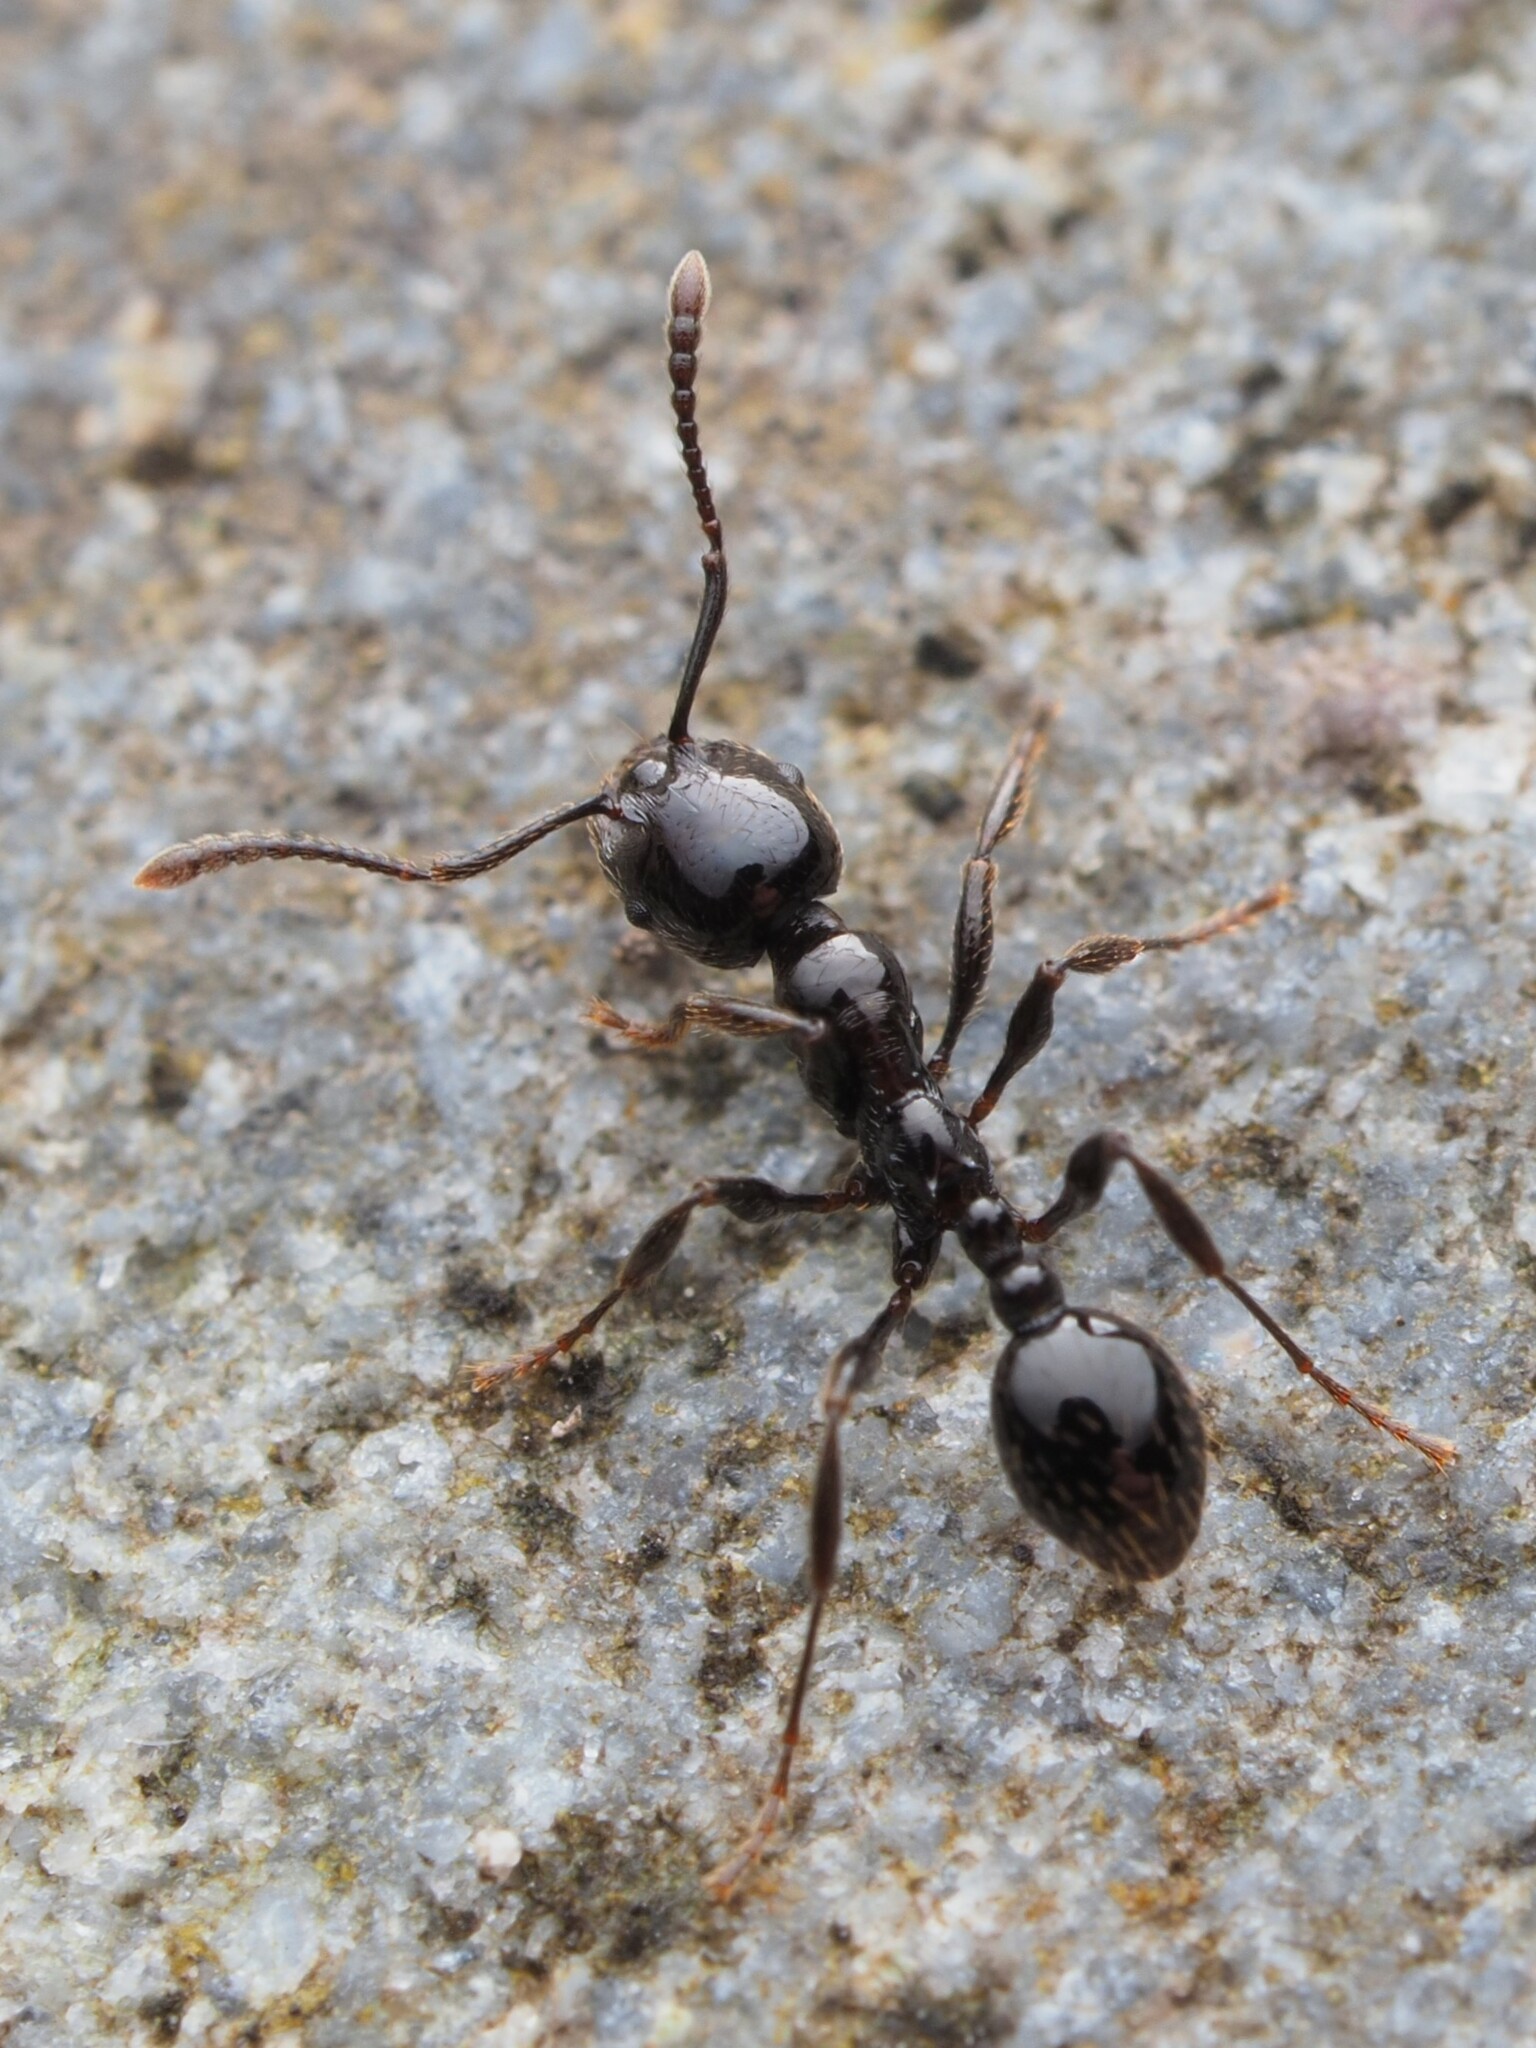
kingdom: Animalia
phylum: Arthropoda
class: Insecta
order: Hymenoptera
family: Formicidae
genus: Monomorium
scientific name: Monomorium antarcticum
